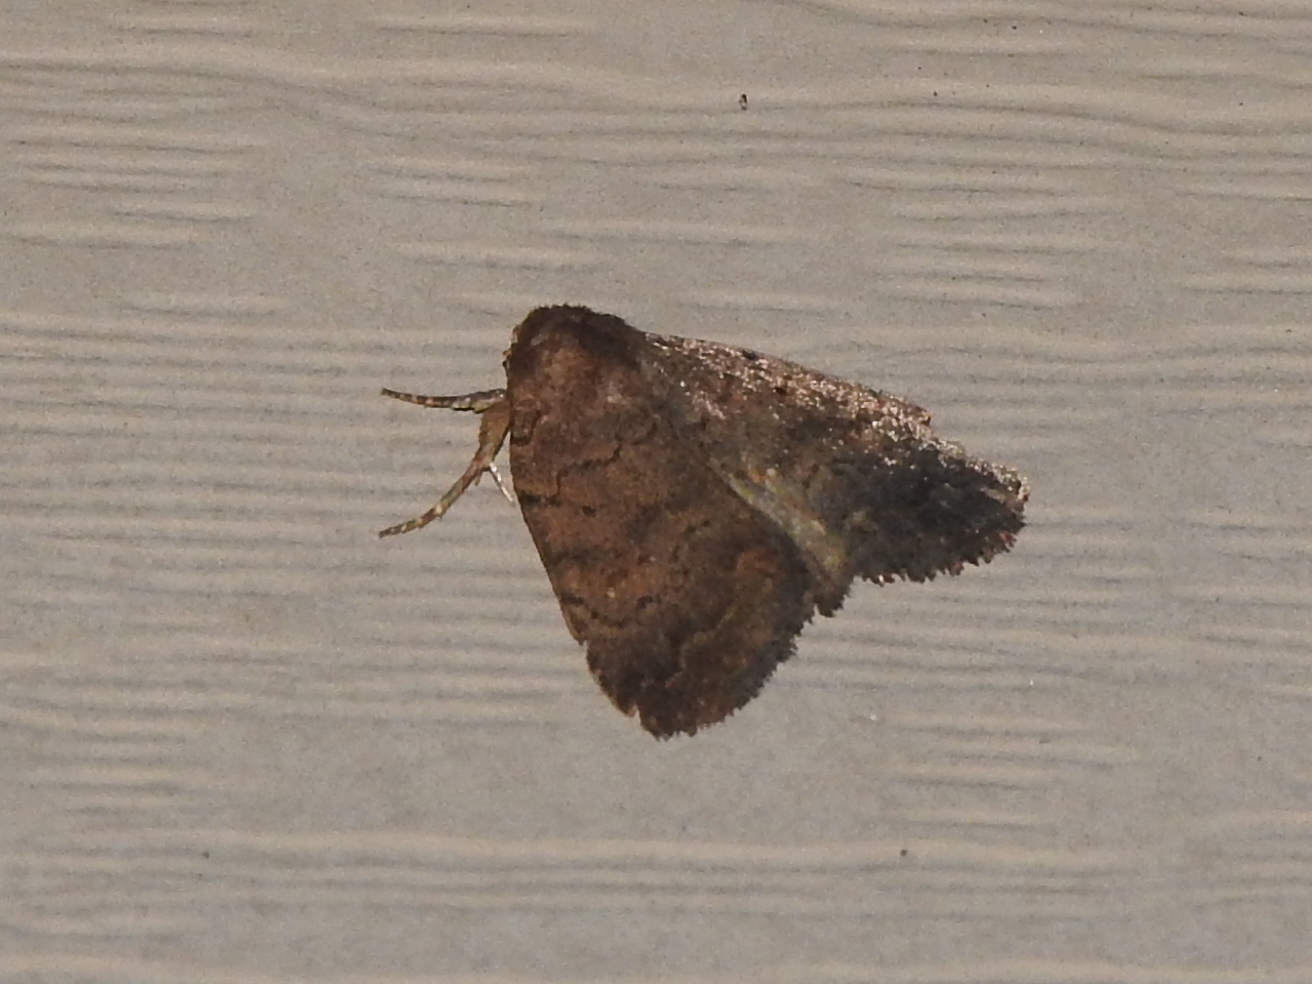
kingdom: Animalia
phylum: Arthropoda
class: Insecta
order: Lepidoptera
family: Noctuidae
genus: Athetis
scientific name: Athetis tarda
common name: Slowpoke moth
